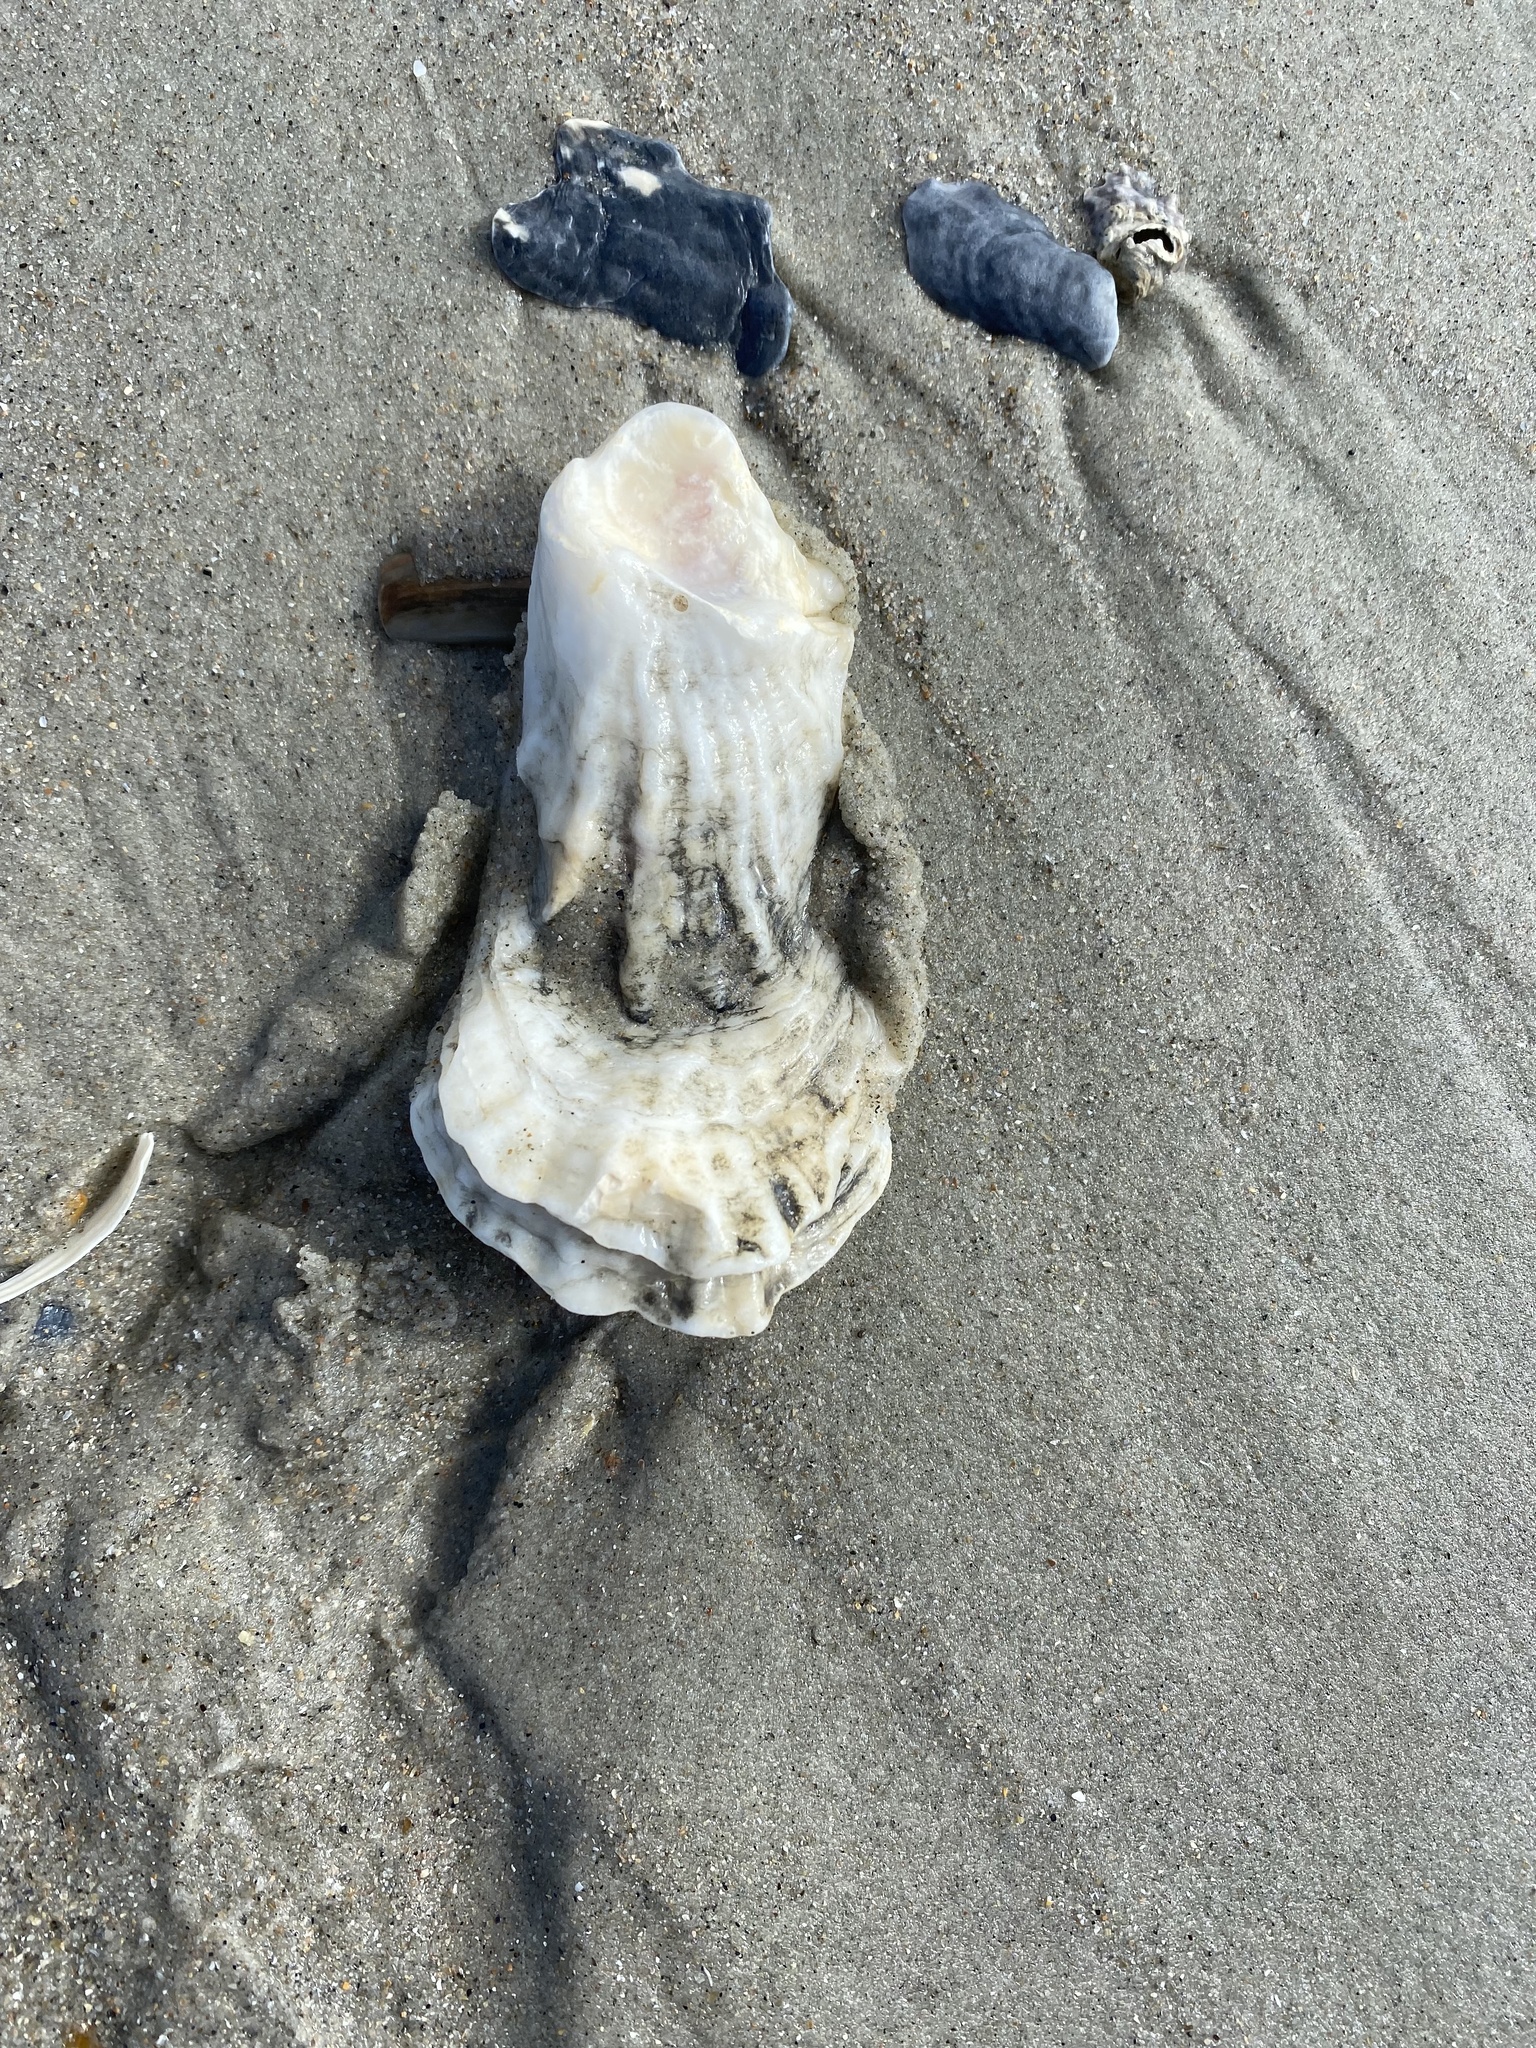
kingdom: Animalia
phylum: Mollusca
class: Bivalvia
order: Ostreida
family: Ostreidae
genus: Crassostrea
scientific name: Crassostrea virginica
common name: American oyster
